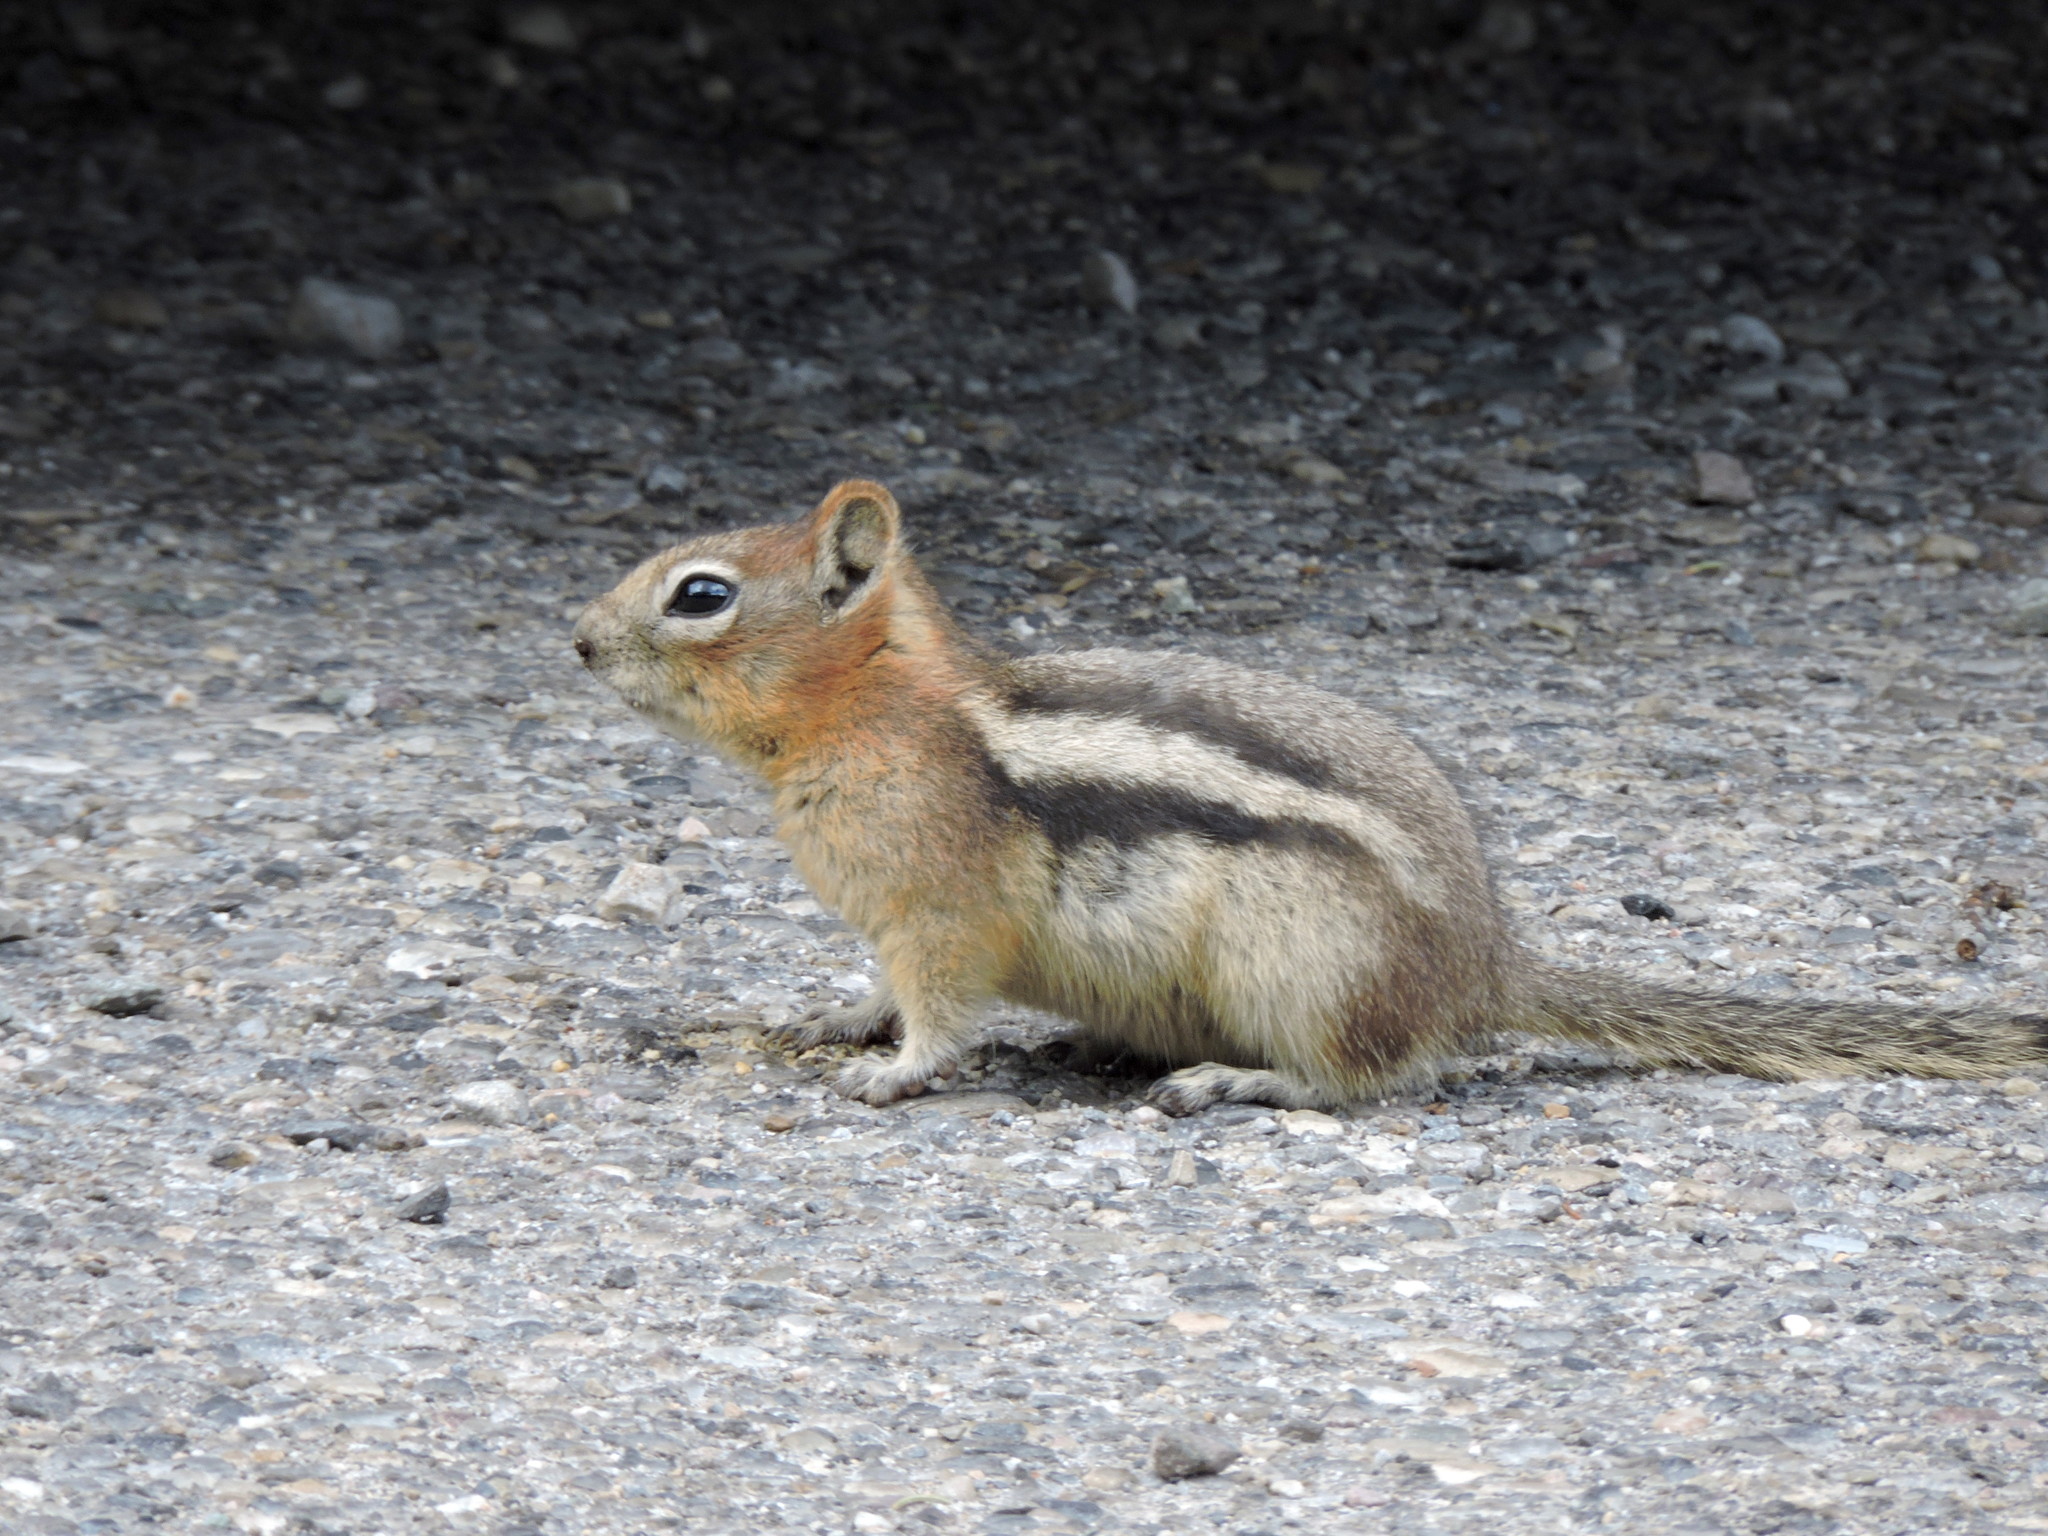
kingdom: Animalia
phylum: Chordata
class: Mammalia
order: Rodentia
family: Sciuridae
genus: Callospermophilus
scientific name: Callospermophilus lateralis
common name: Golden-mantled ground squirrel
